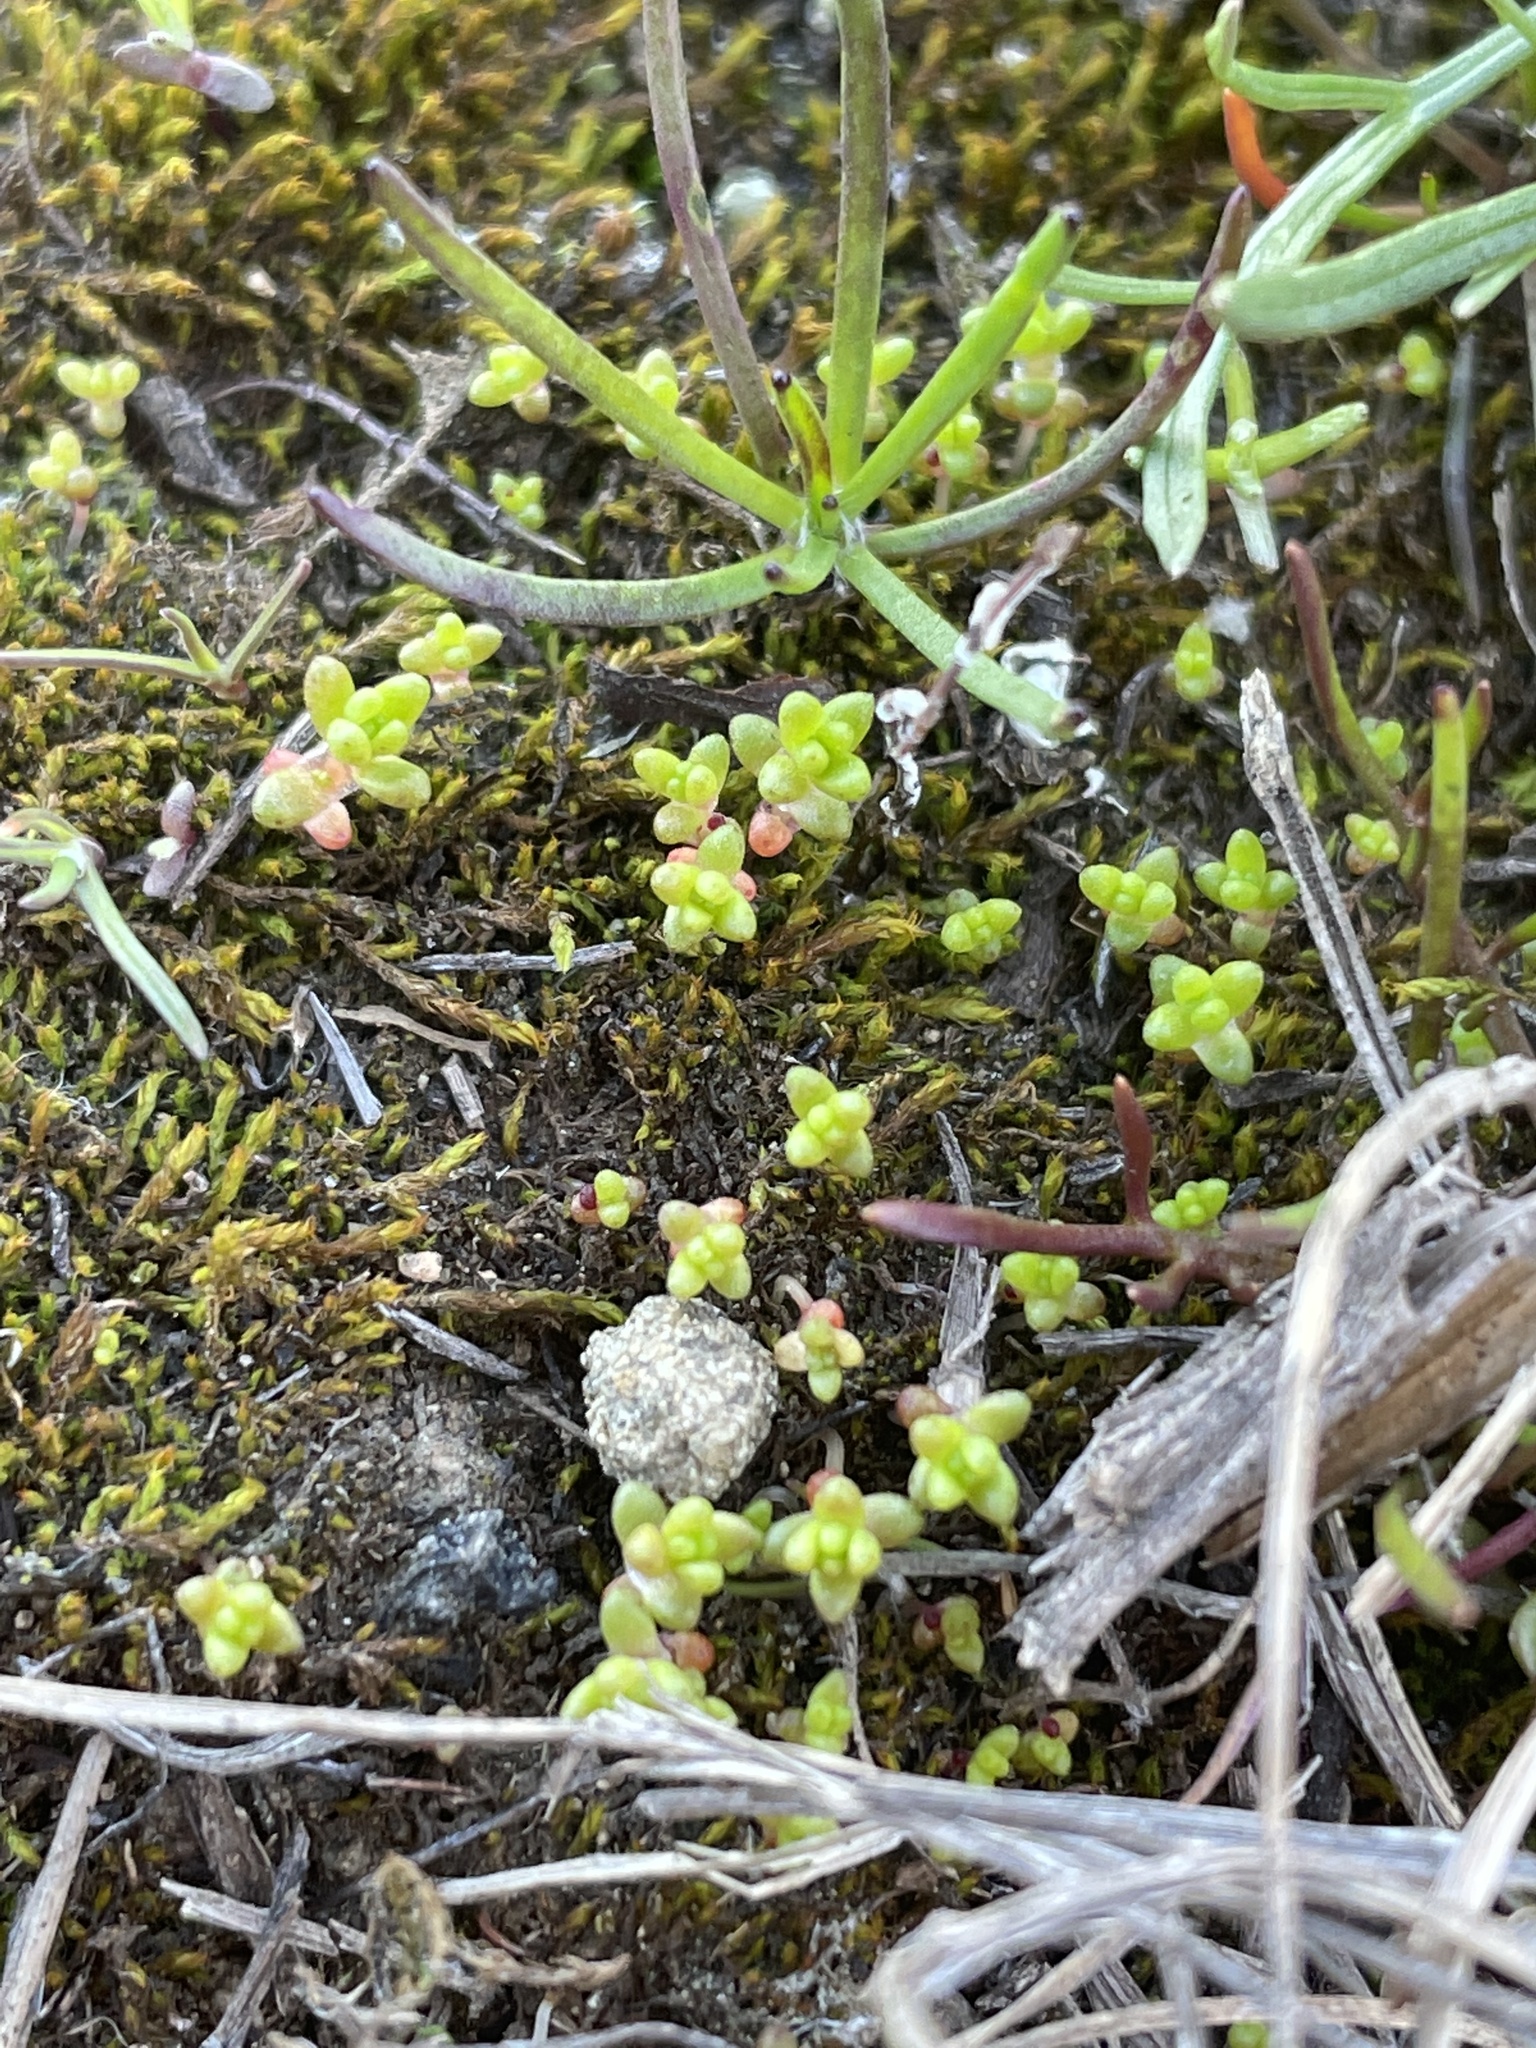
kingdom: Plantae
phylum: Tracheophyta
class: Magnoliopsida
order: Saxifragales
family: Crassulaceae
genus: Crassula
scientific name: Crassula connata
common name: Erect pygmyweed
